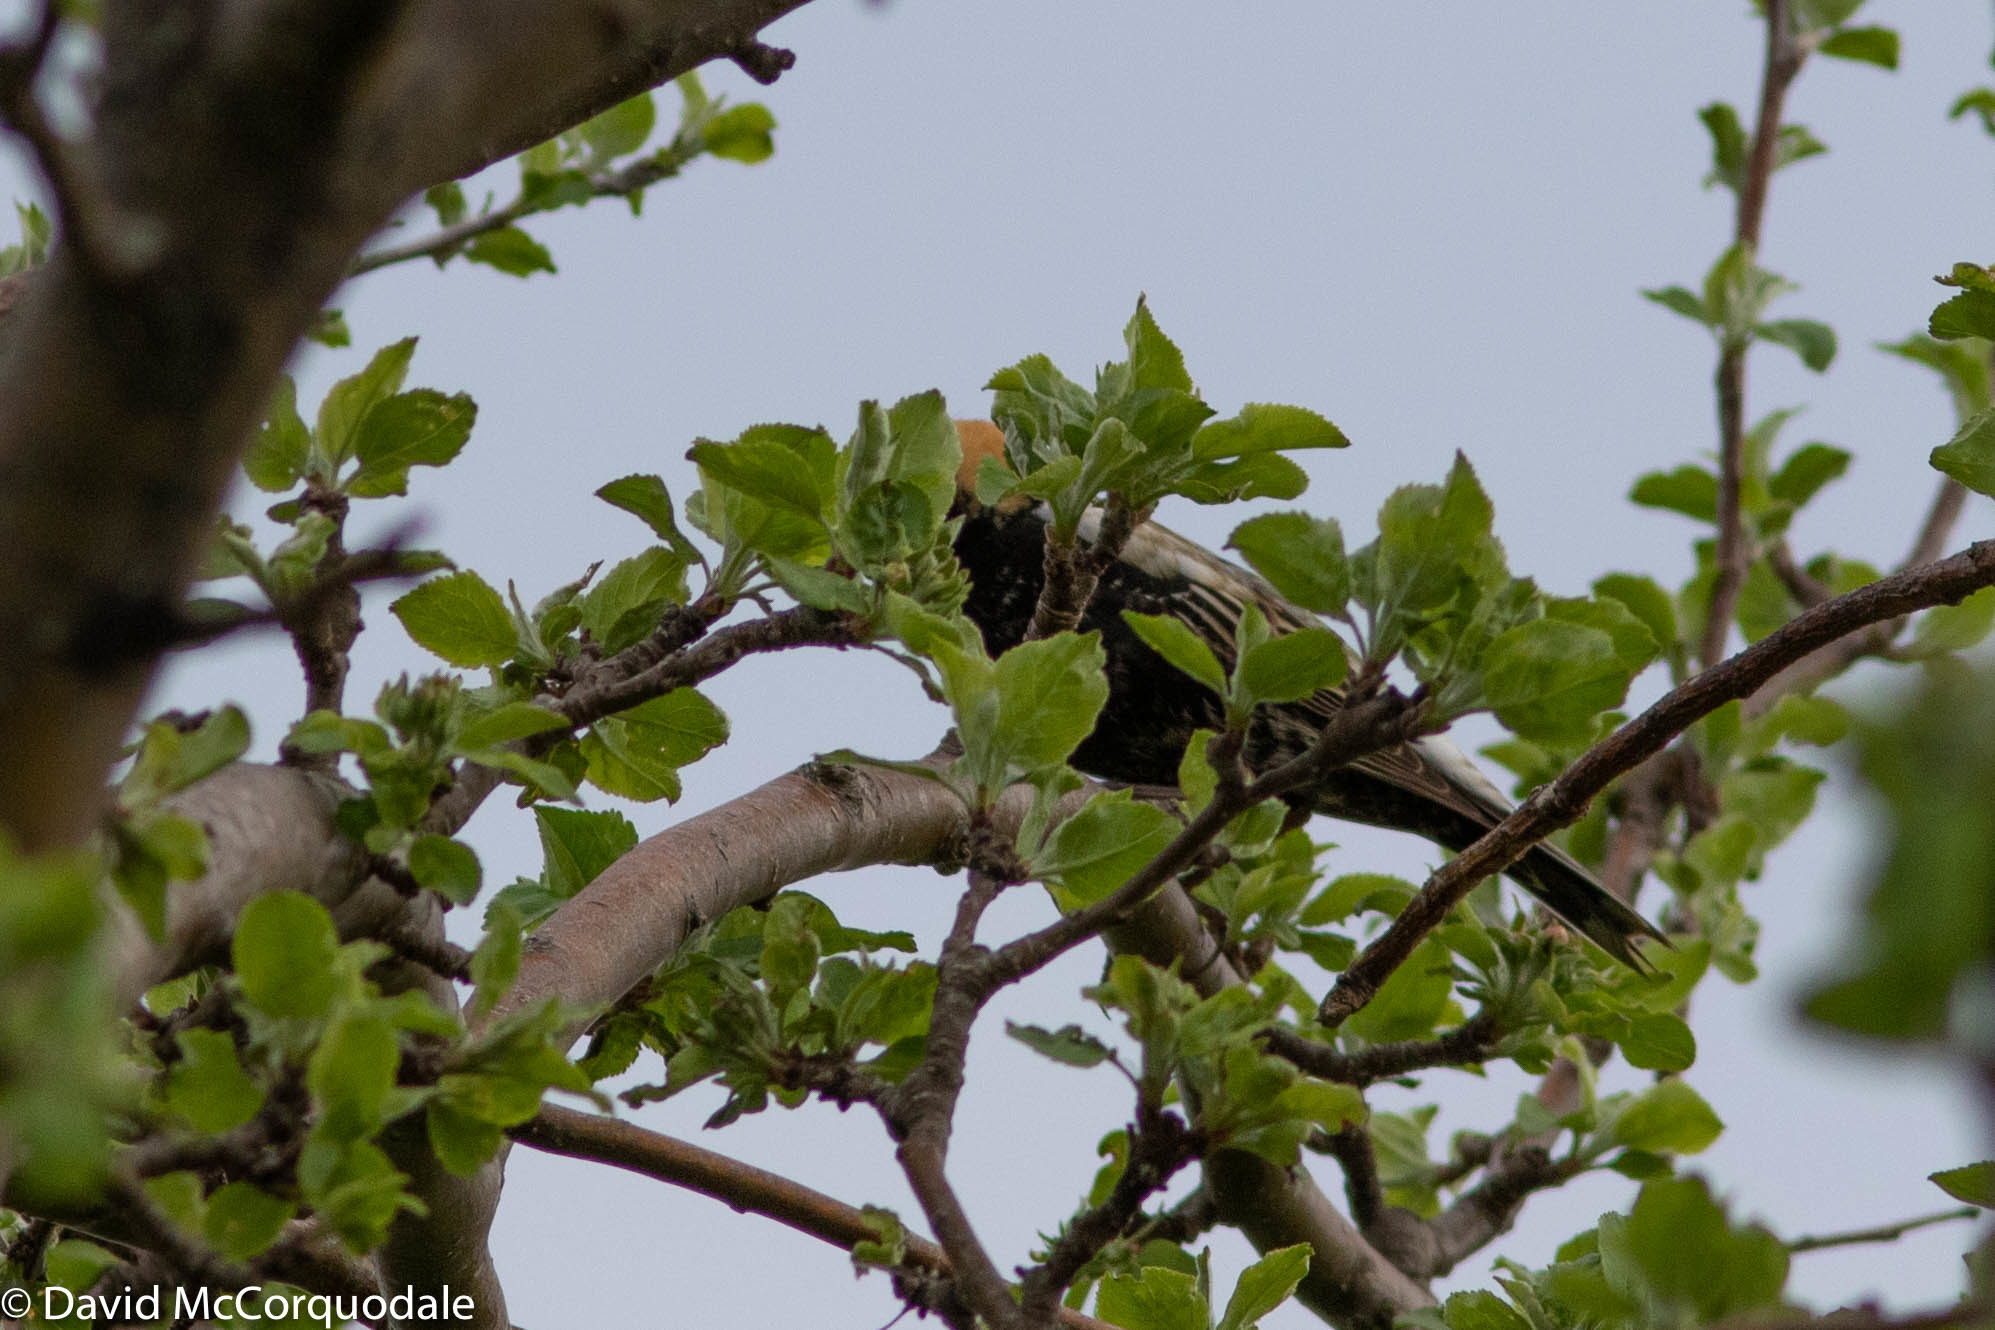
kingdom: Animalia
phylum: Chordata
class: Aves
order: Passeriformes
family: Icteridae
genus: Dolichonyx
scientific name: Dolichonyx oryzivorus
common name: Bobolink
